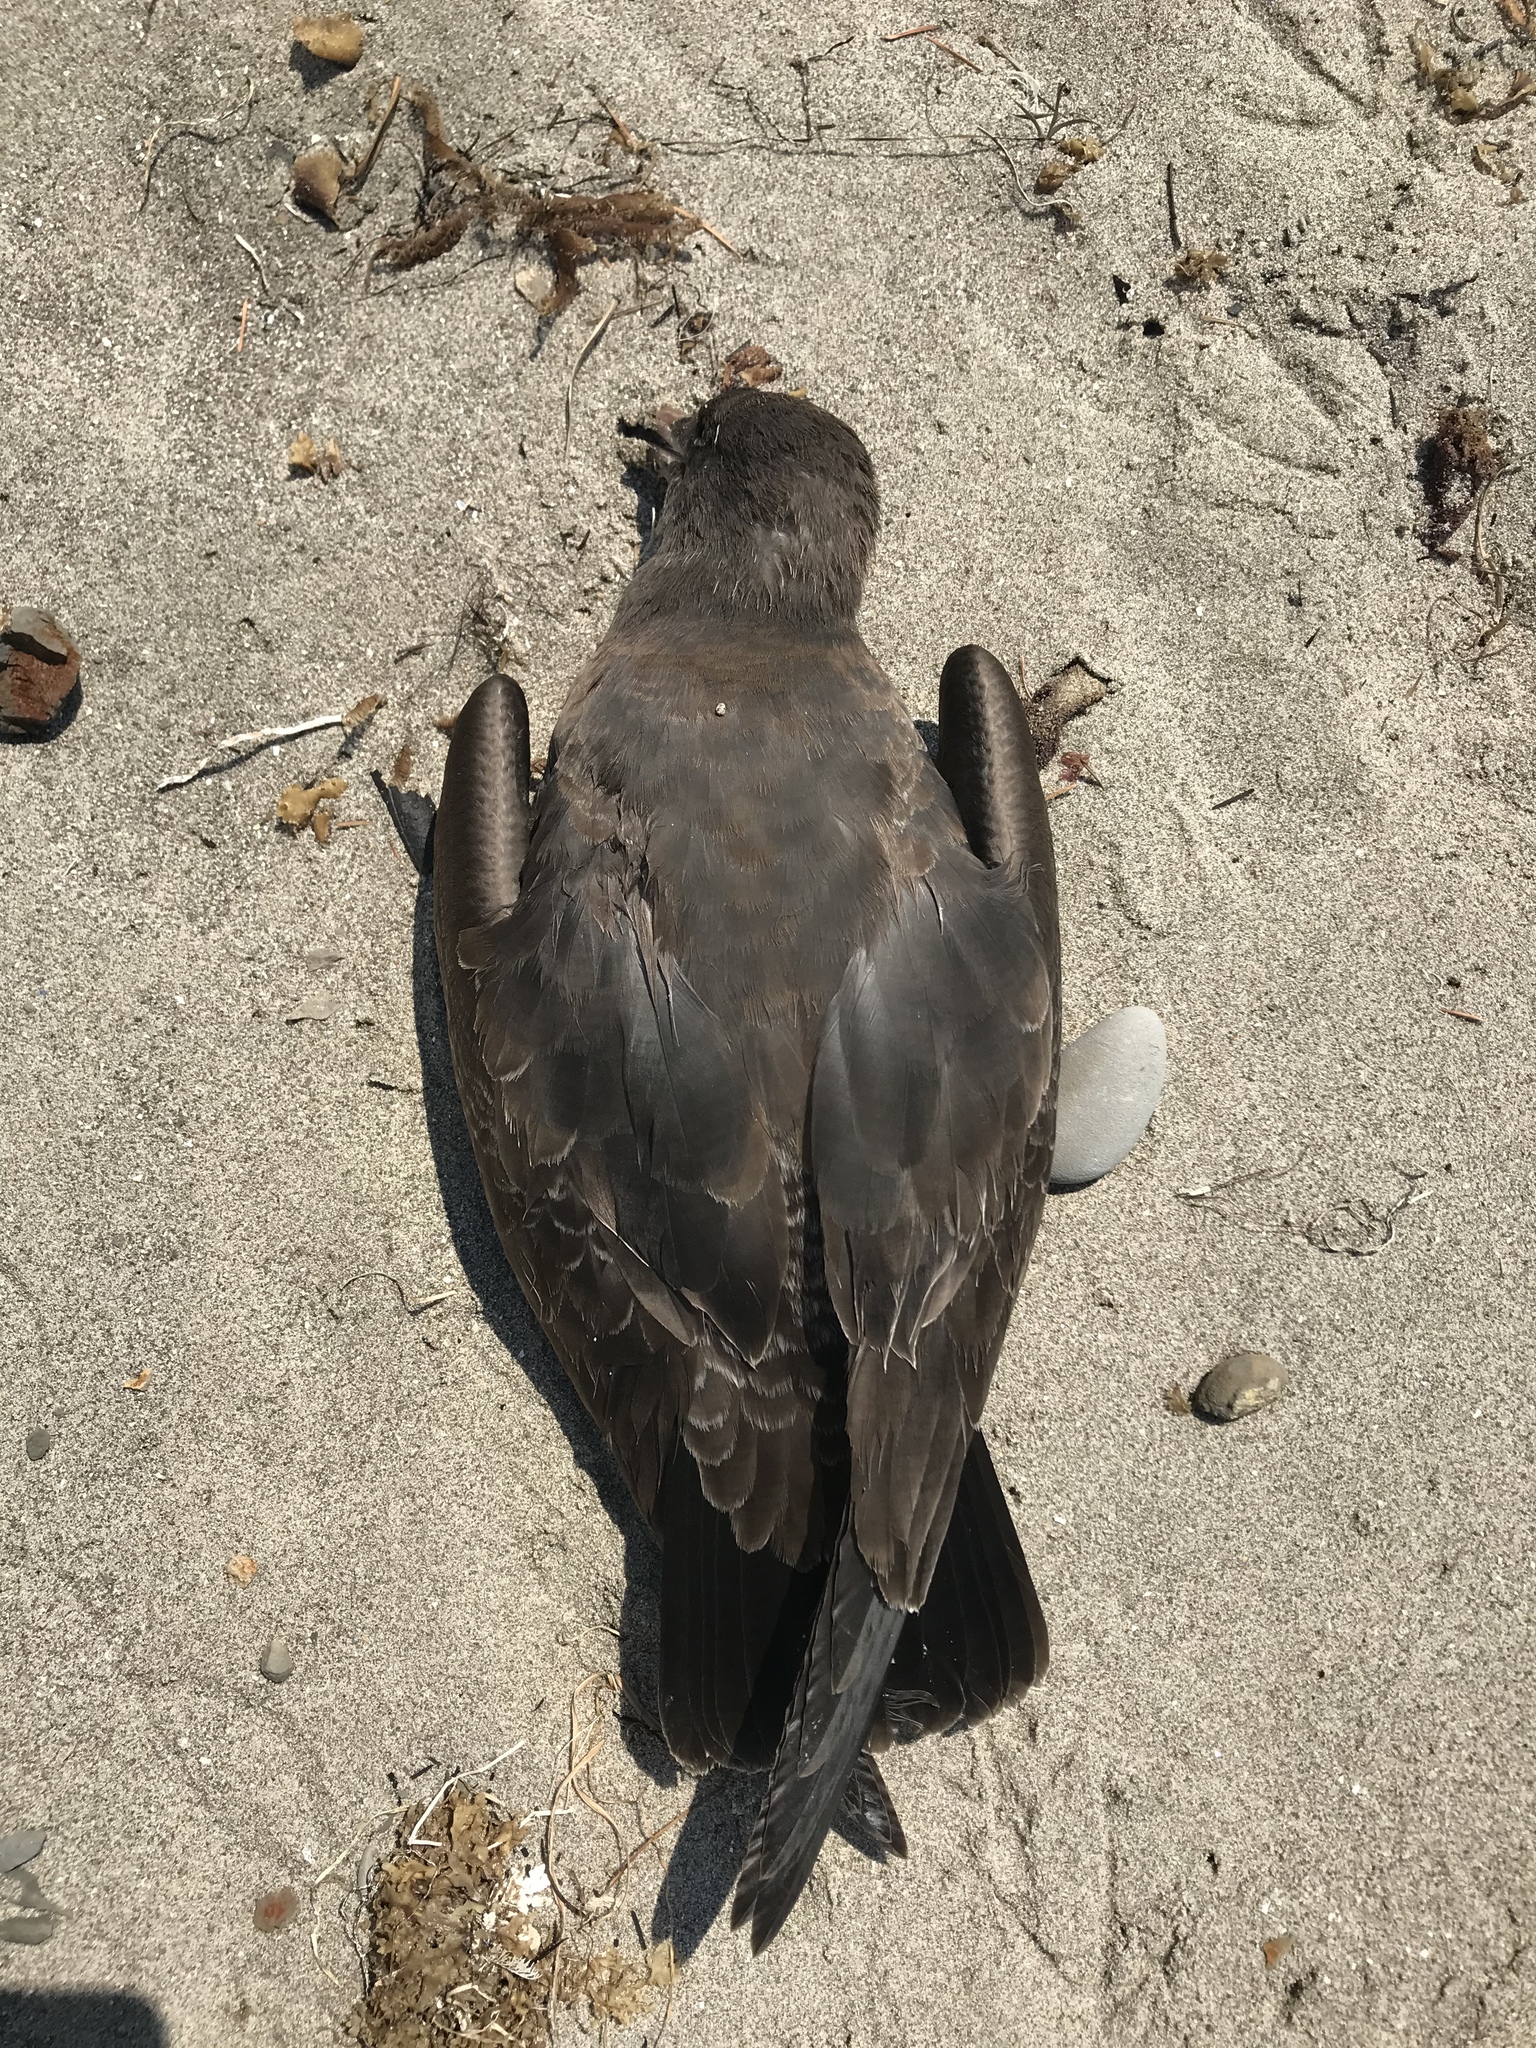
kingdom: Animalia
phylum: Chordata
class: Aves
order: Charadriiformes
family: Laridae
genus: Larus
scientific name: Larus heermanni
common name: Heermann's gull
